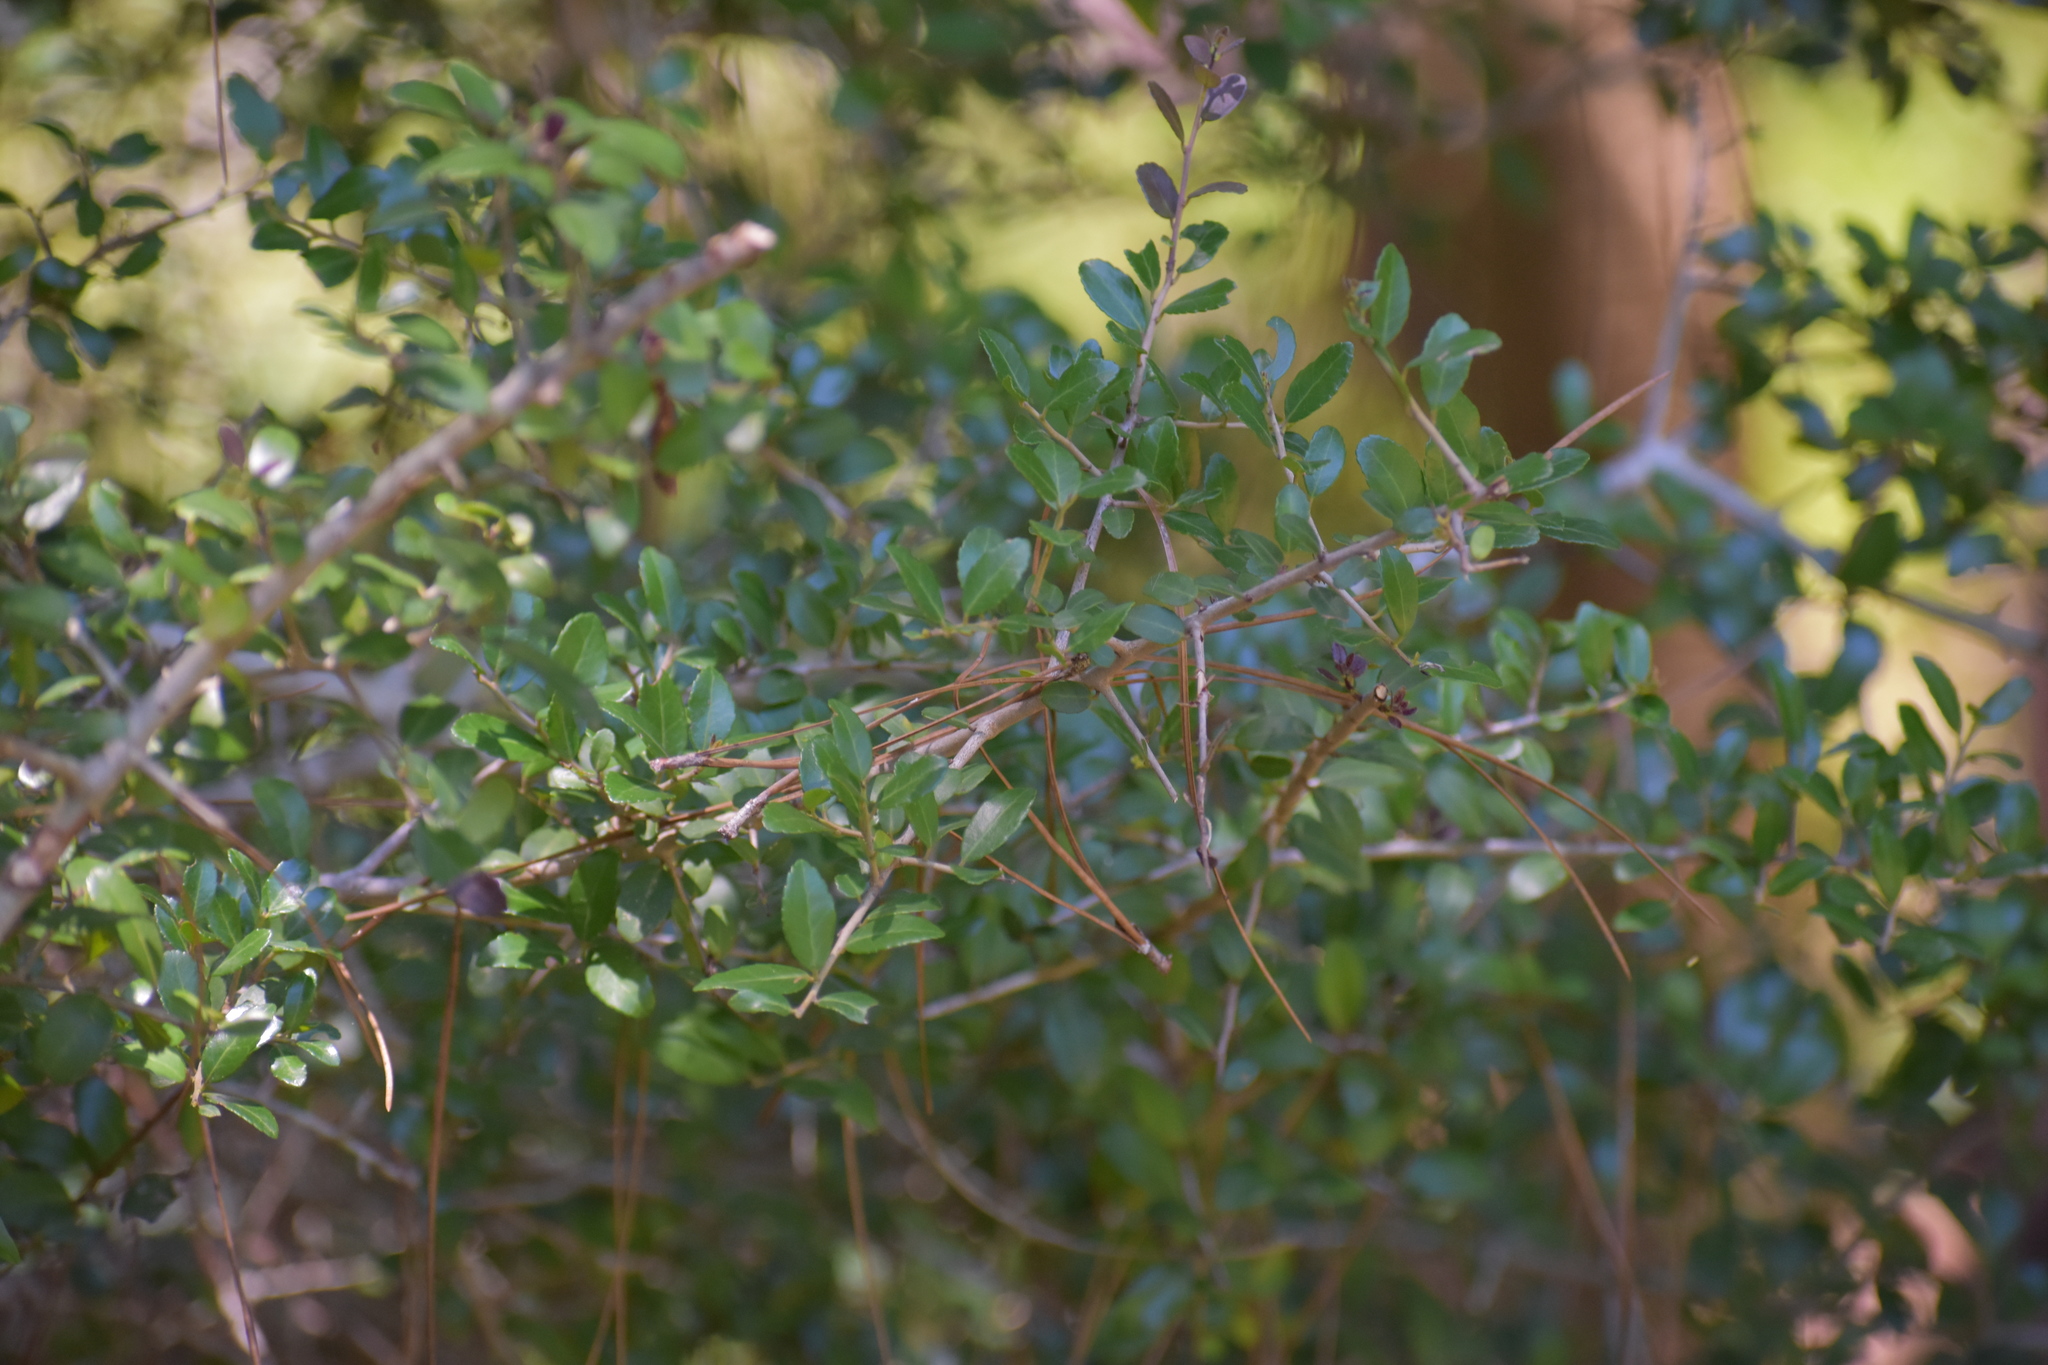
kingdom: Plantae
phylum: Tracheophyta
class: Magnoliopsida
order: Aquifoliales
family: Aquifoliaceae
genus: Ilex
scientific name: Ilex vomitoria
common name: Yaupon holly
